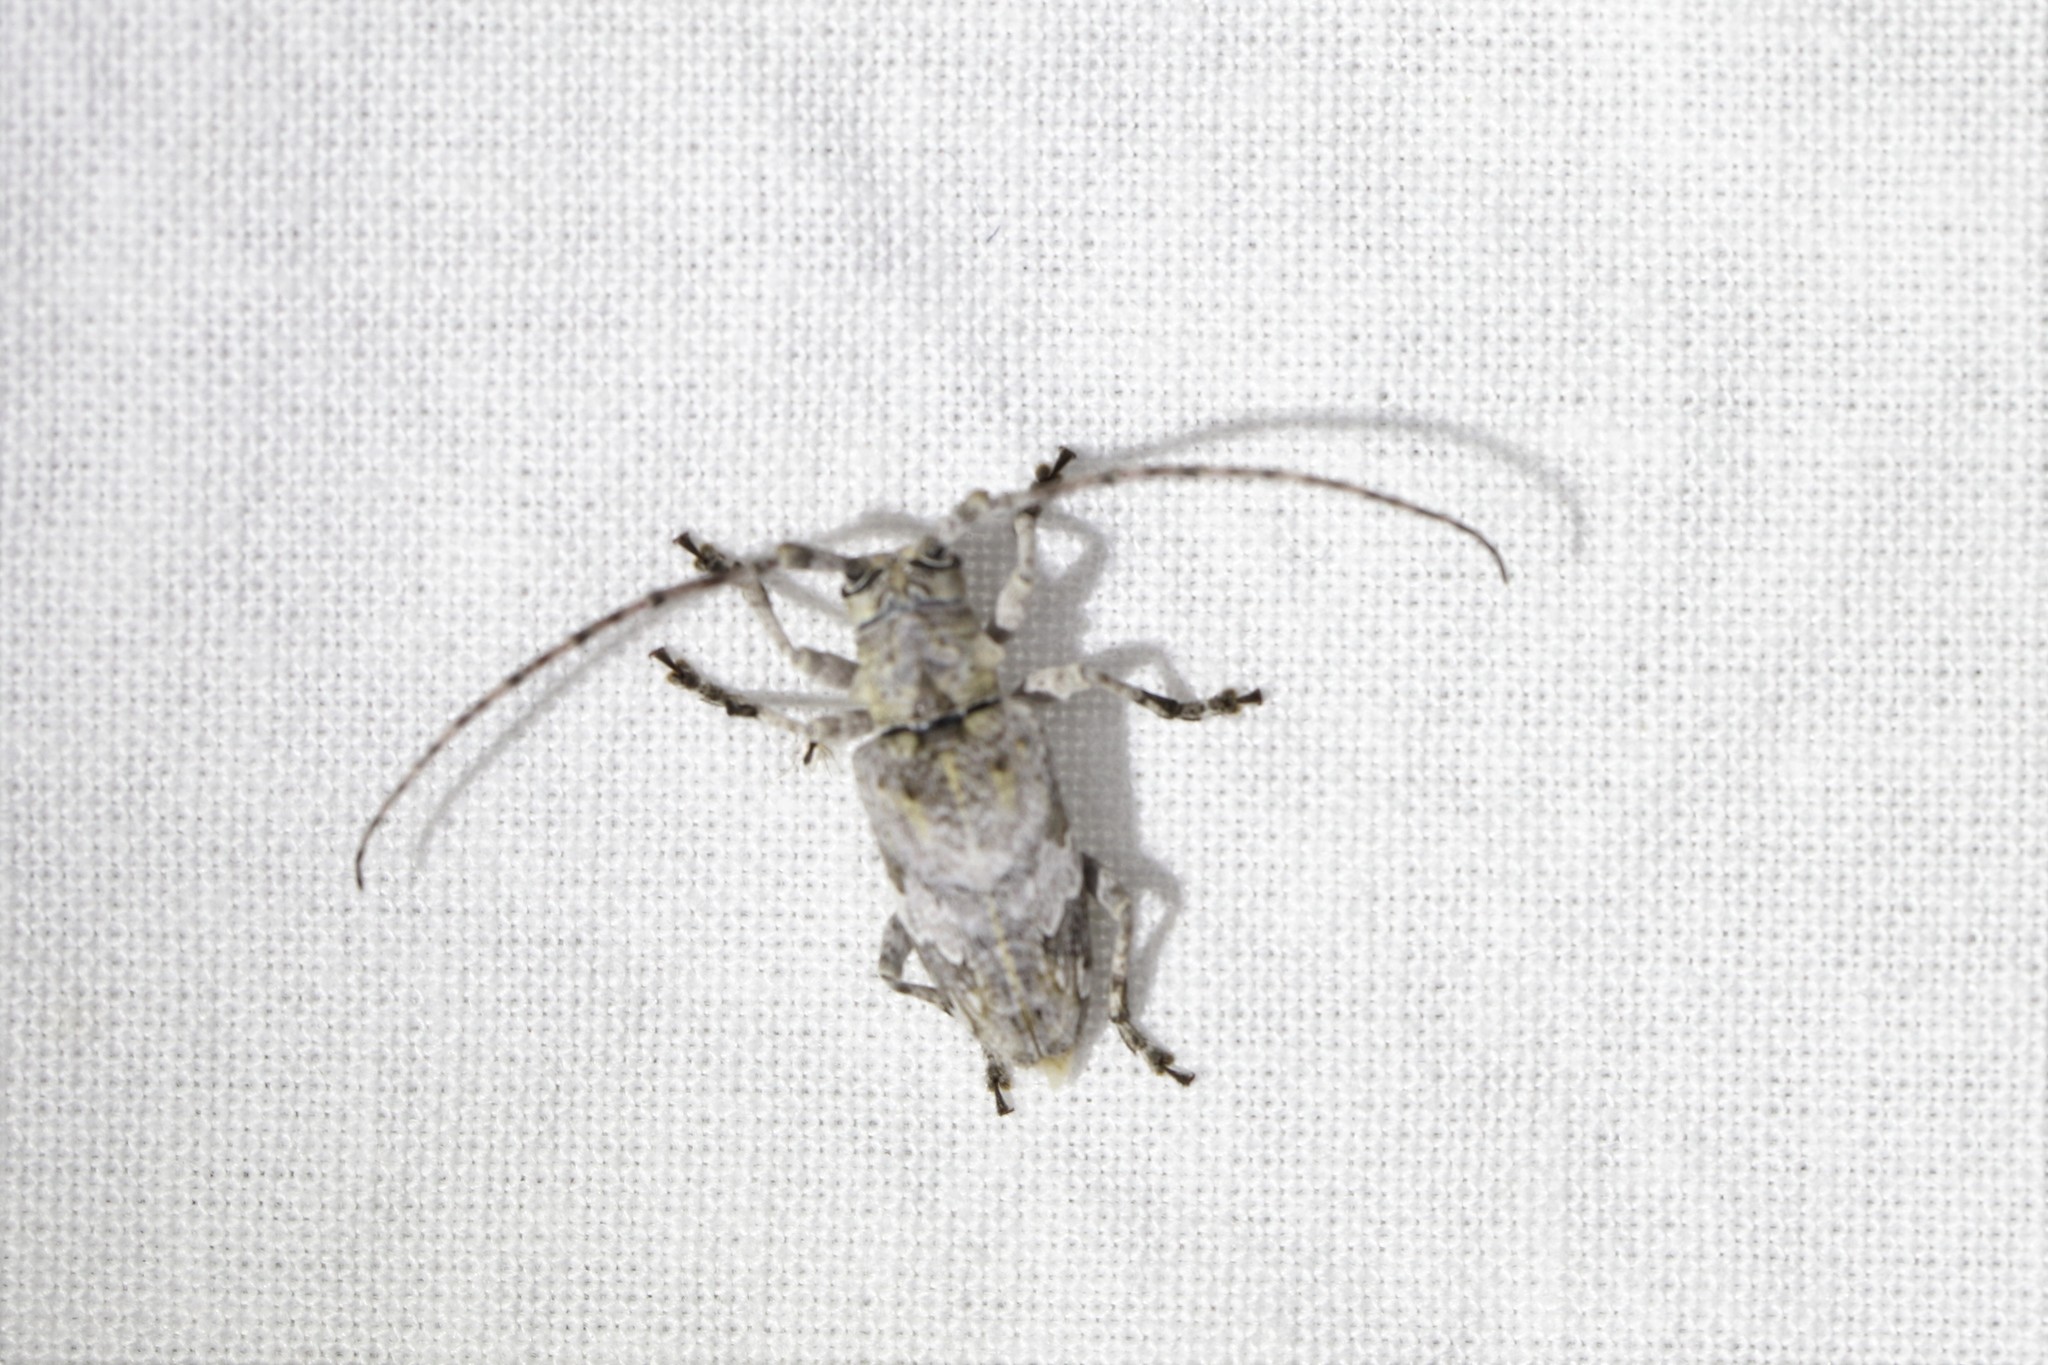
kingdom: Animalia
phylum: Arthropoda
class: Insecta
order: Coleoptera
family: Cerambycidae
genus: Idactus
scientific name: Idactus iranicus
